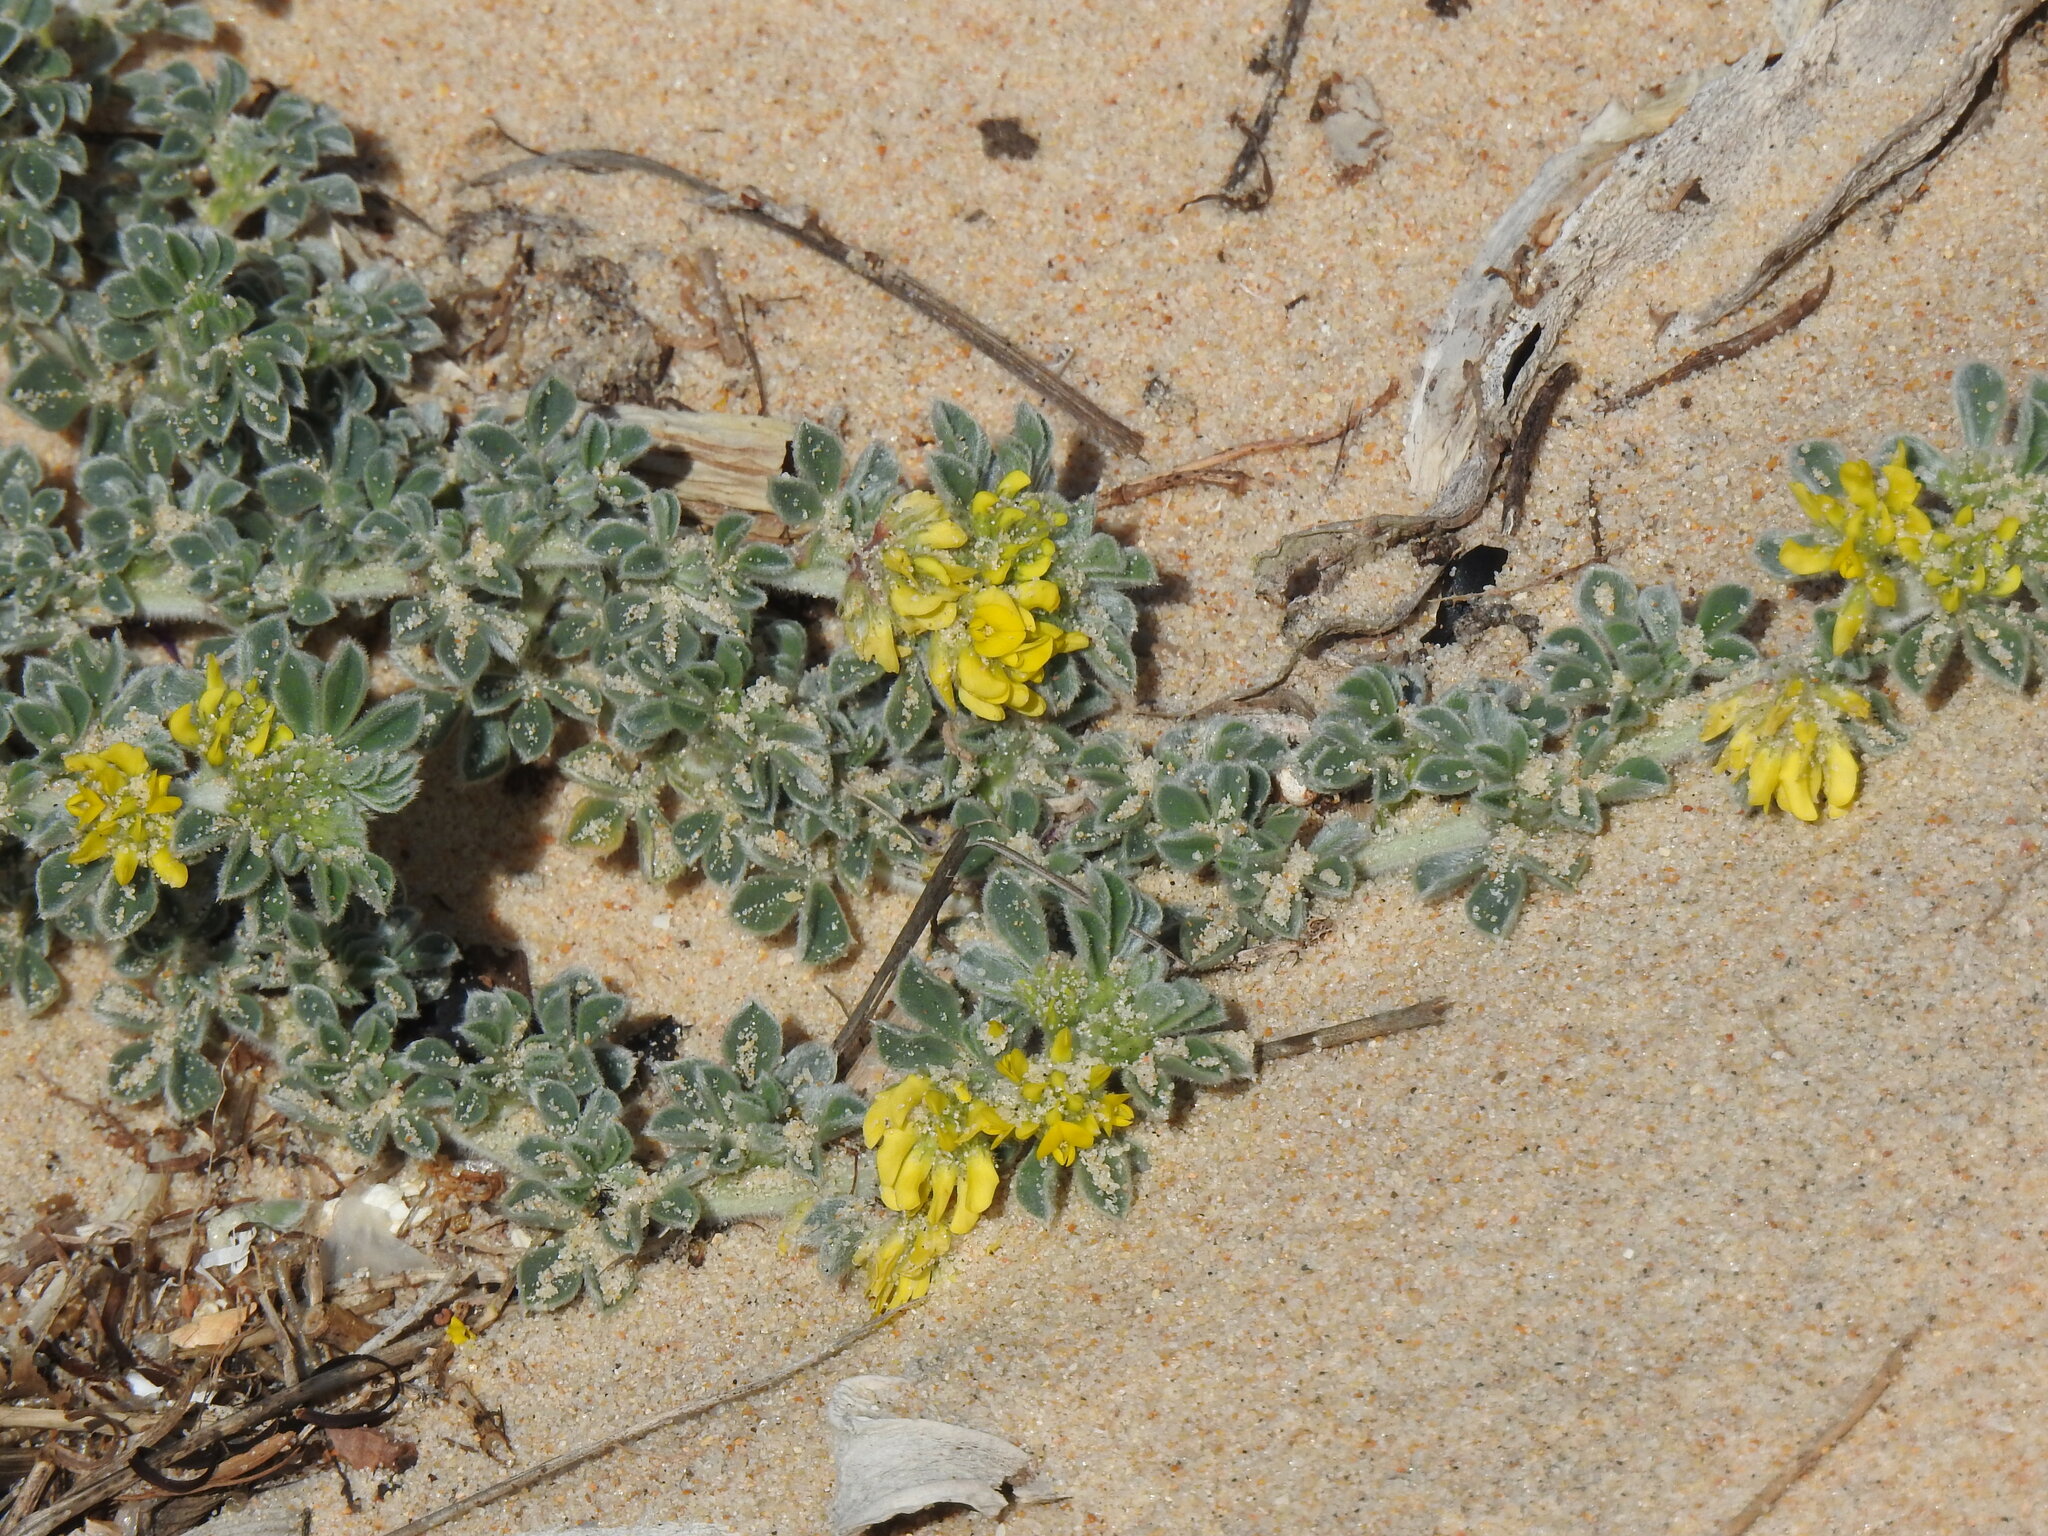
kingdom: Plantae
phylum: Tracheophyta
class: Magnoliopsida
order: Fabales
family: Fabaceae
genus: Medicago
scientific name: Medicago marina
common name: Sea medick
